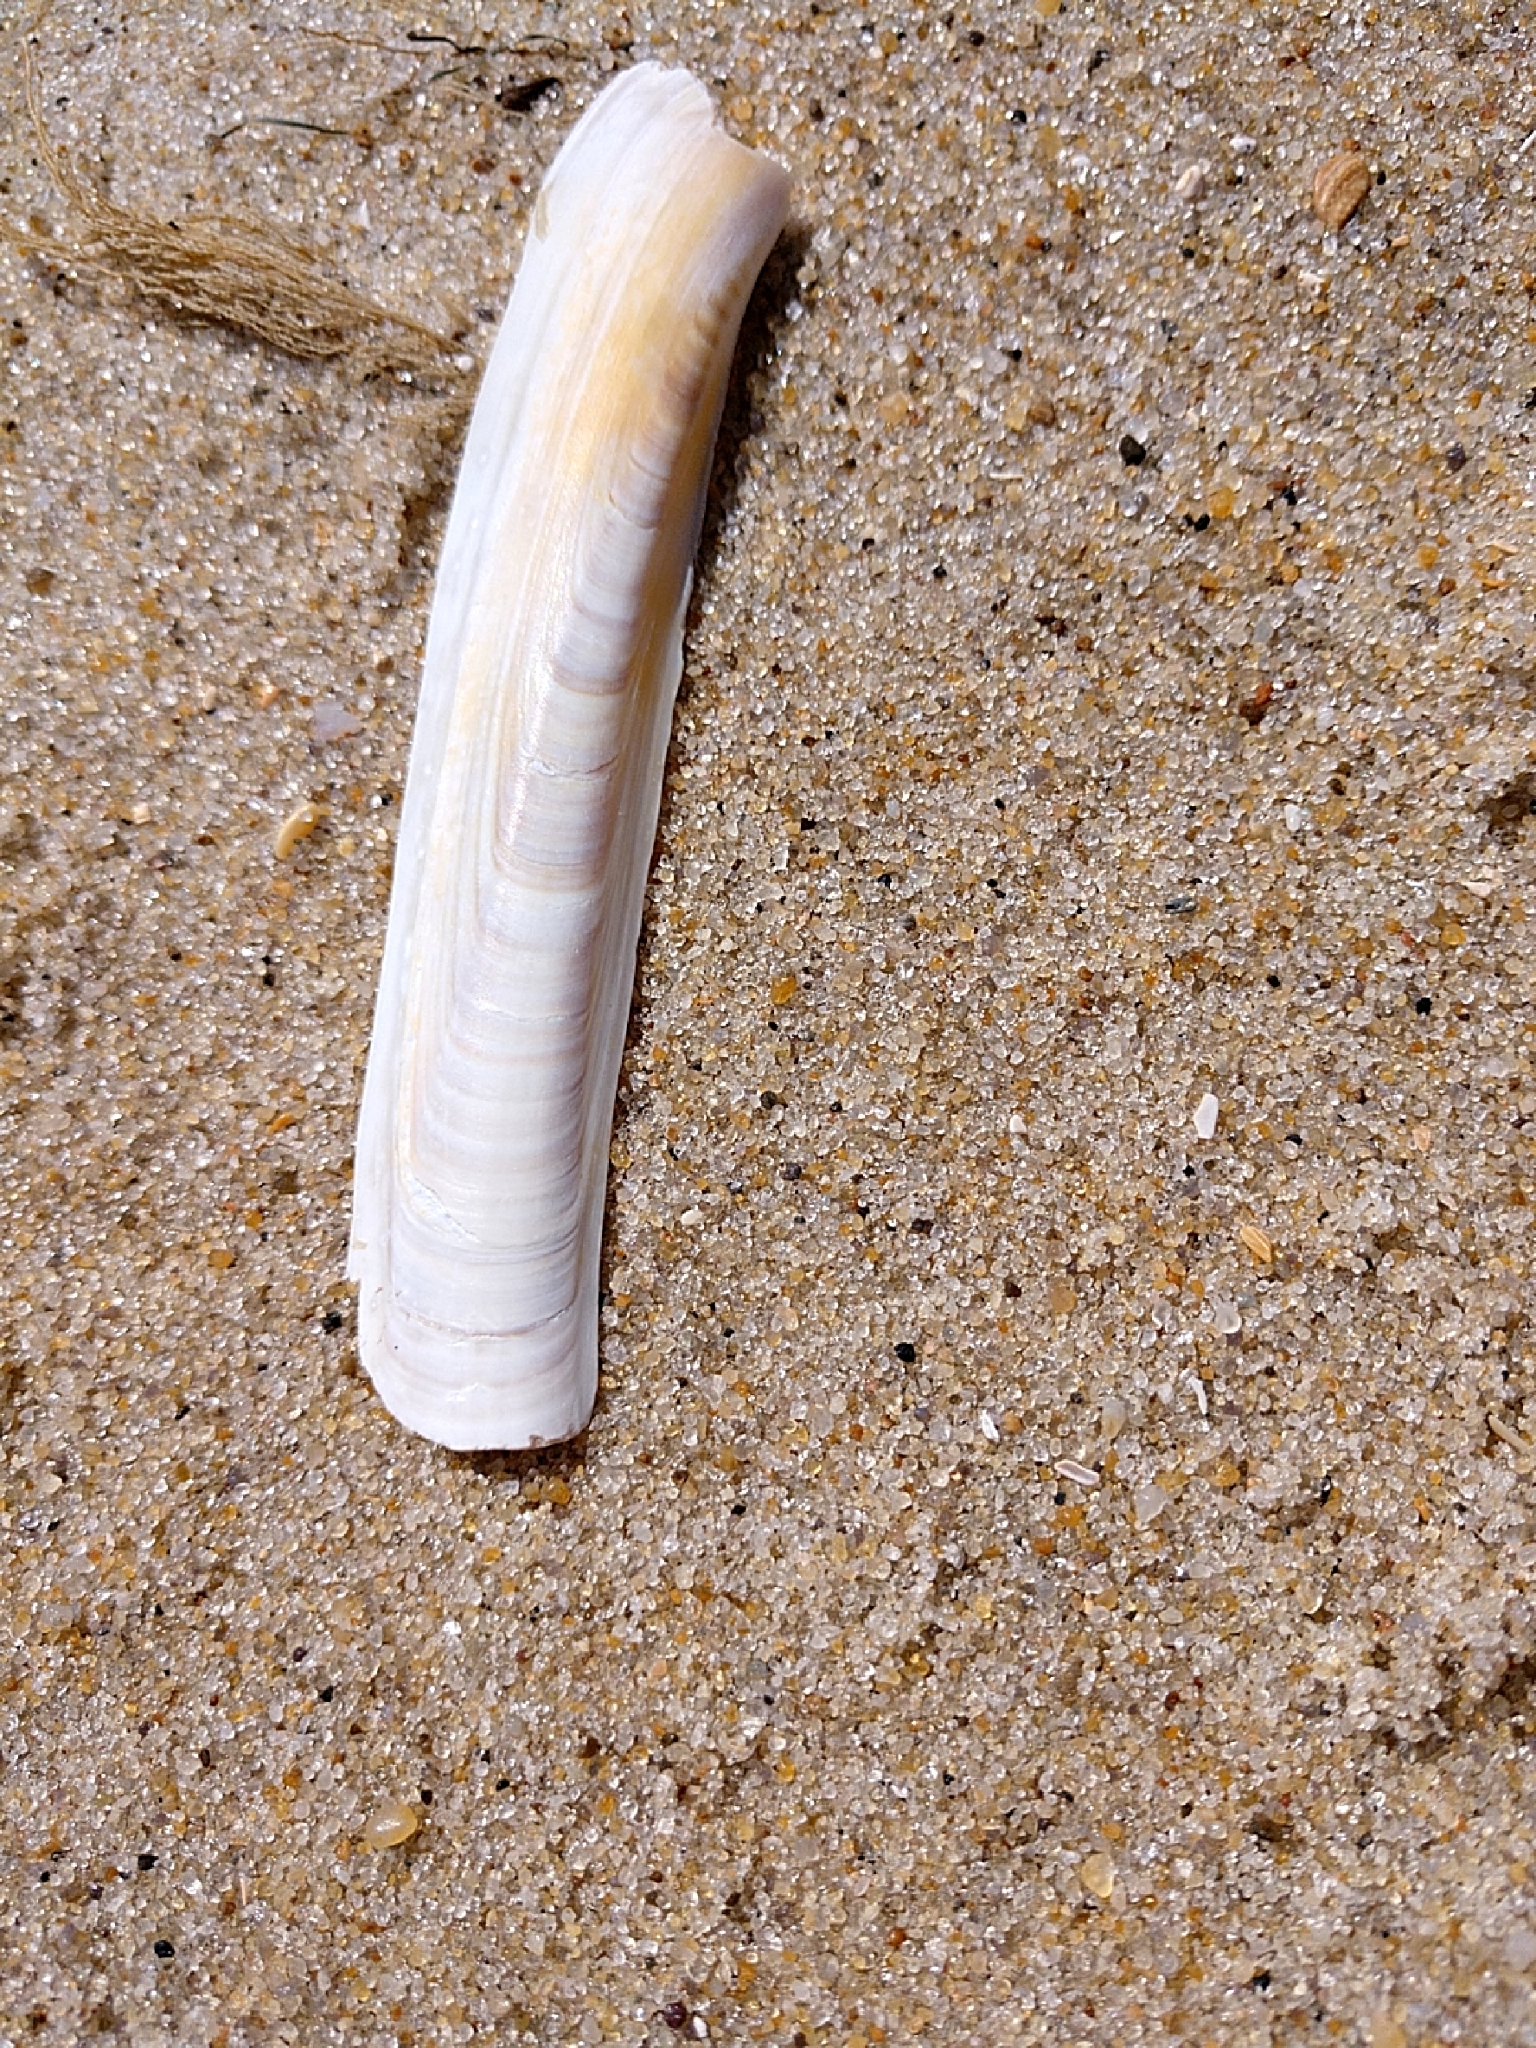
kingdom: Animalia
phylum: Mollusca
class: Bivalvia
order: Adapedonta
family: Pharidae
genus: Ensis
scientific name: Ensis leei
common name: American jack knife clam
